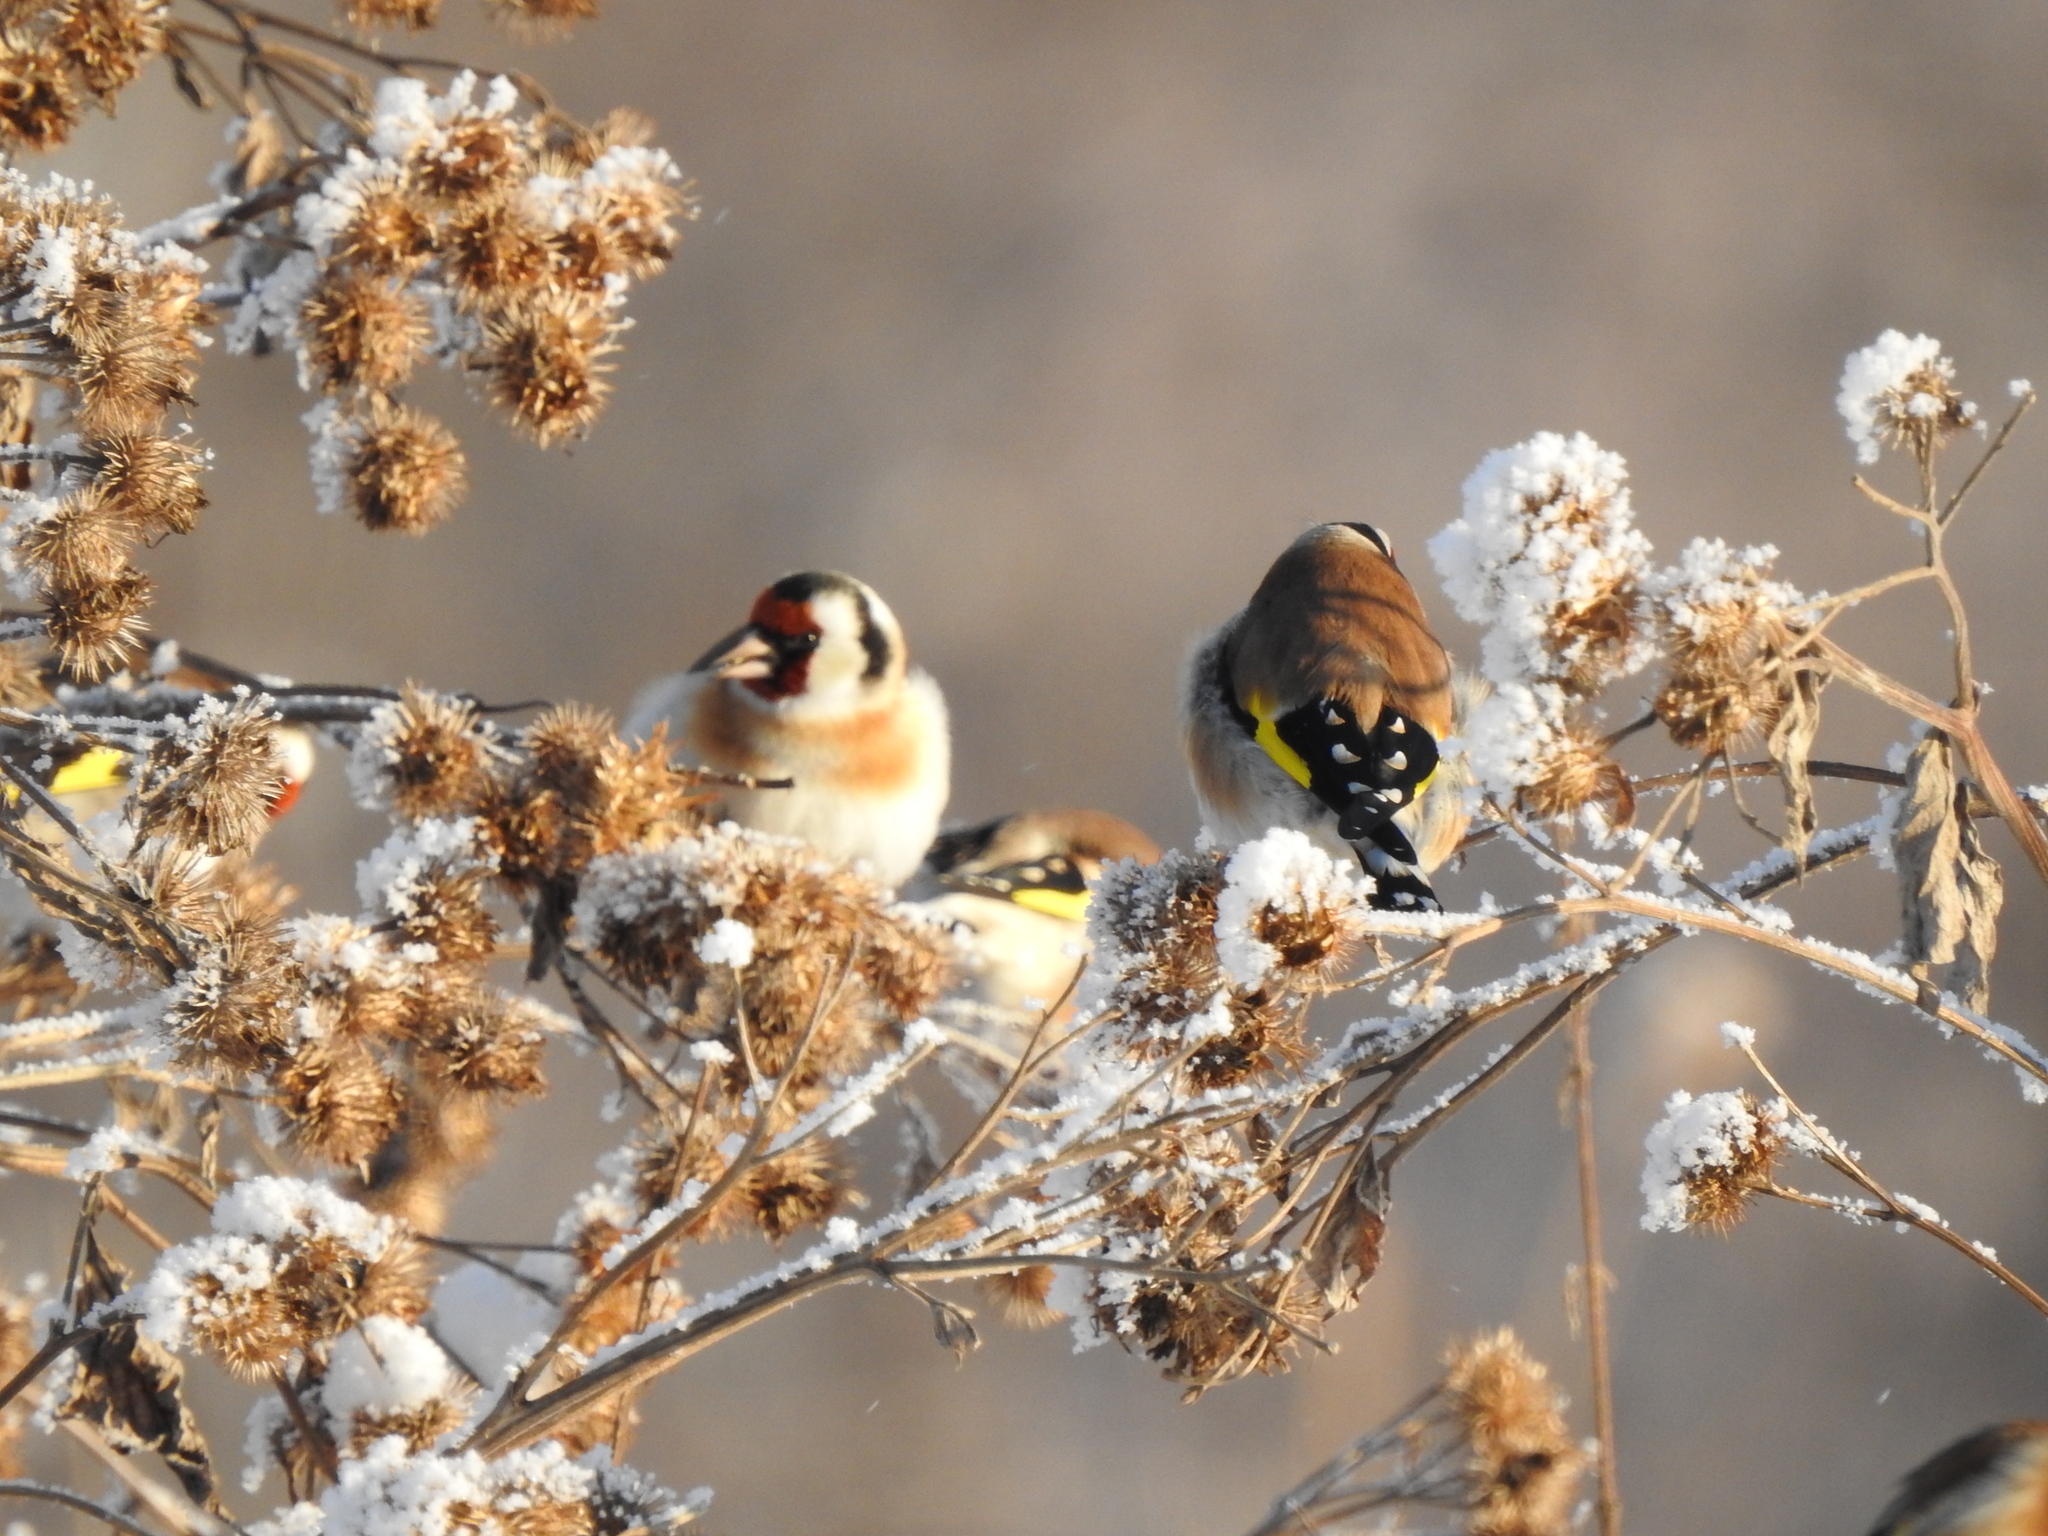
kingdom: Animalia
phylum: Chordata
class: Aves
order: Passeriformes
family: Fringillidae
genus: Carduelis
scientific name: Carduelis carduelis
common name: European goldfinch
